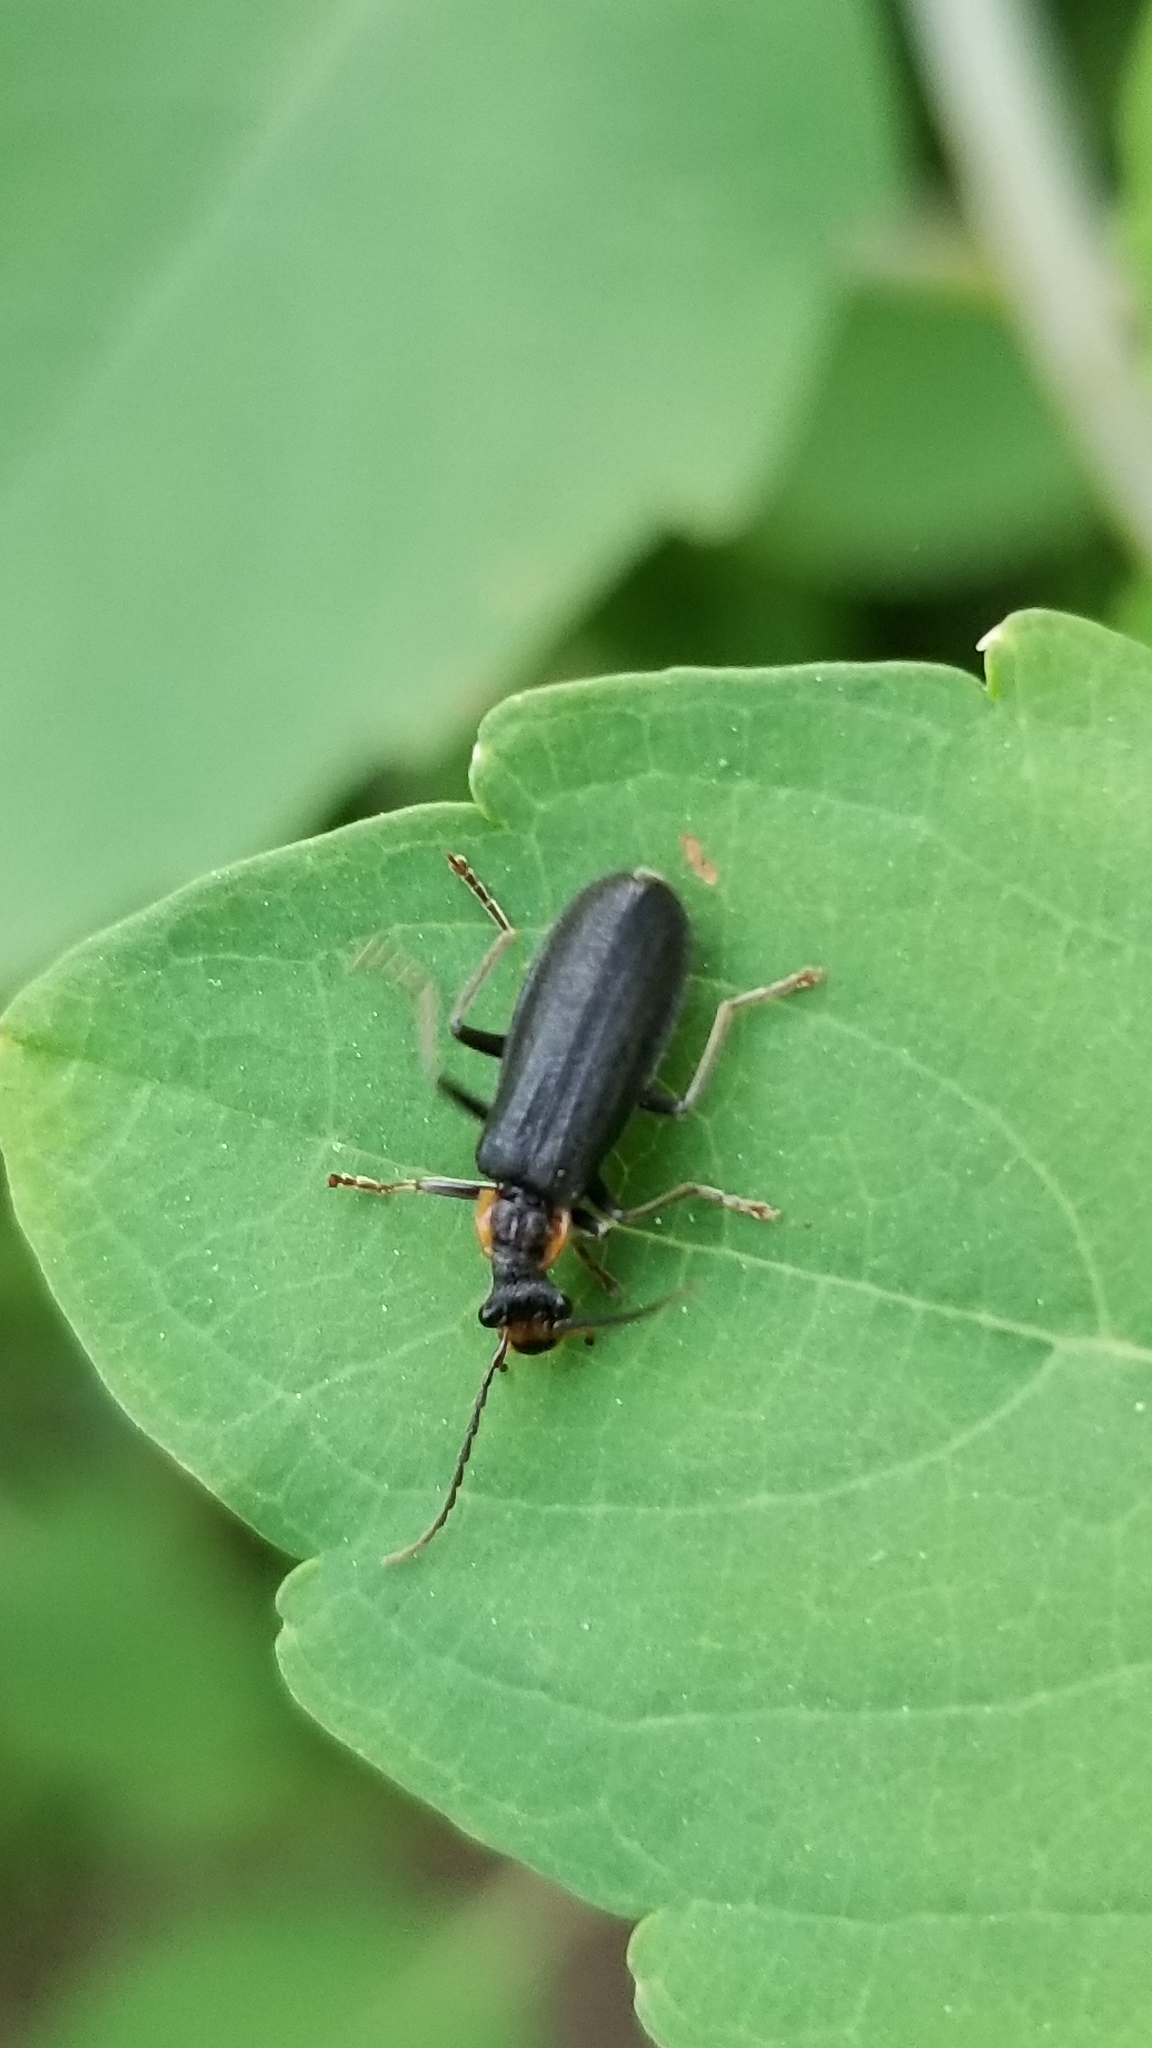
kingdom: Animalia
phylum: Arthropoda
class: Insecta
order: Coleoptera
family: Cantharidae
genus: Podabrus
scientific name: Podabrus rugosulus
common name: Wrinkled soldier beetle
